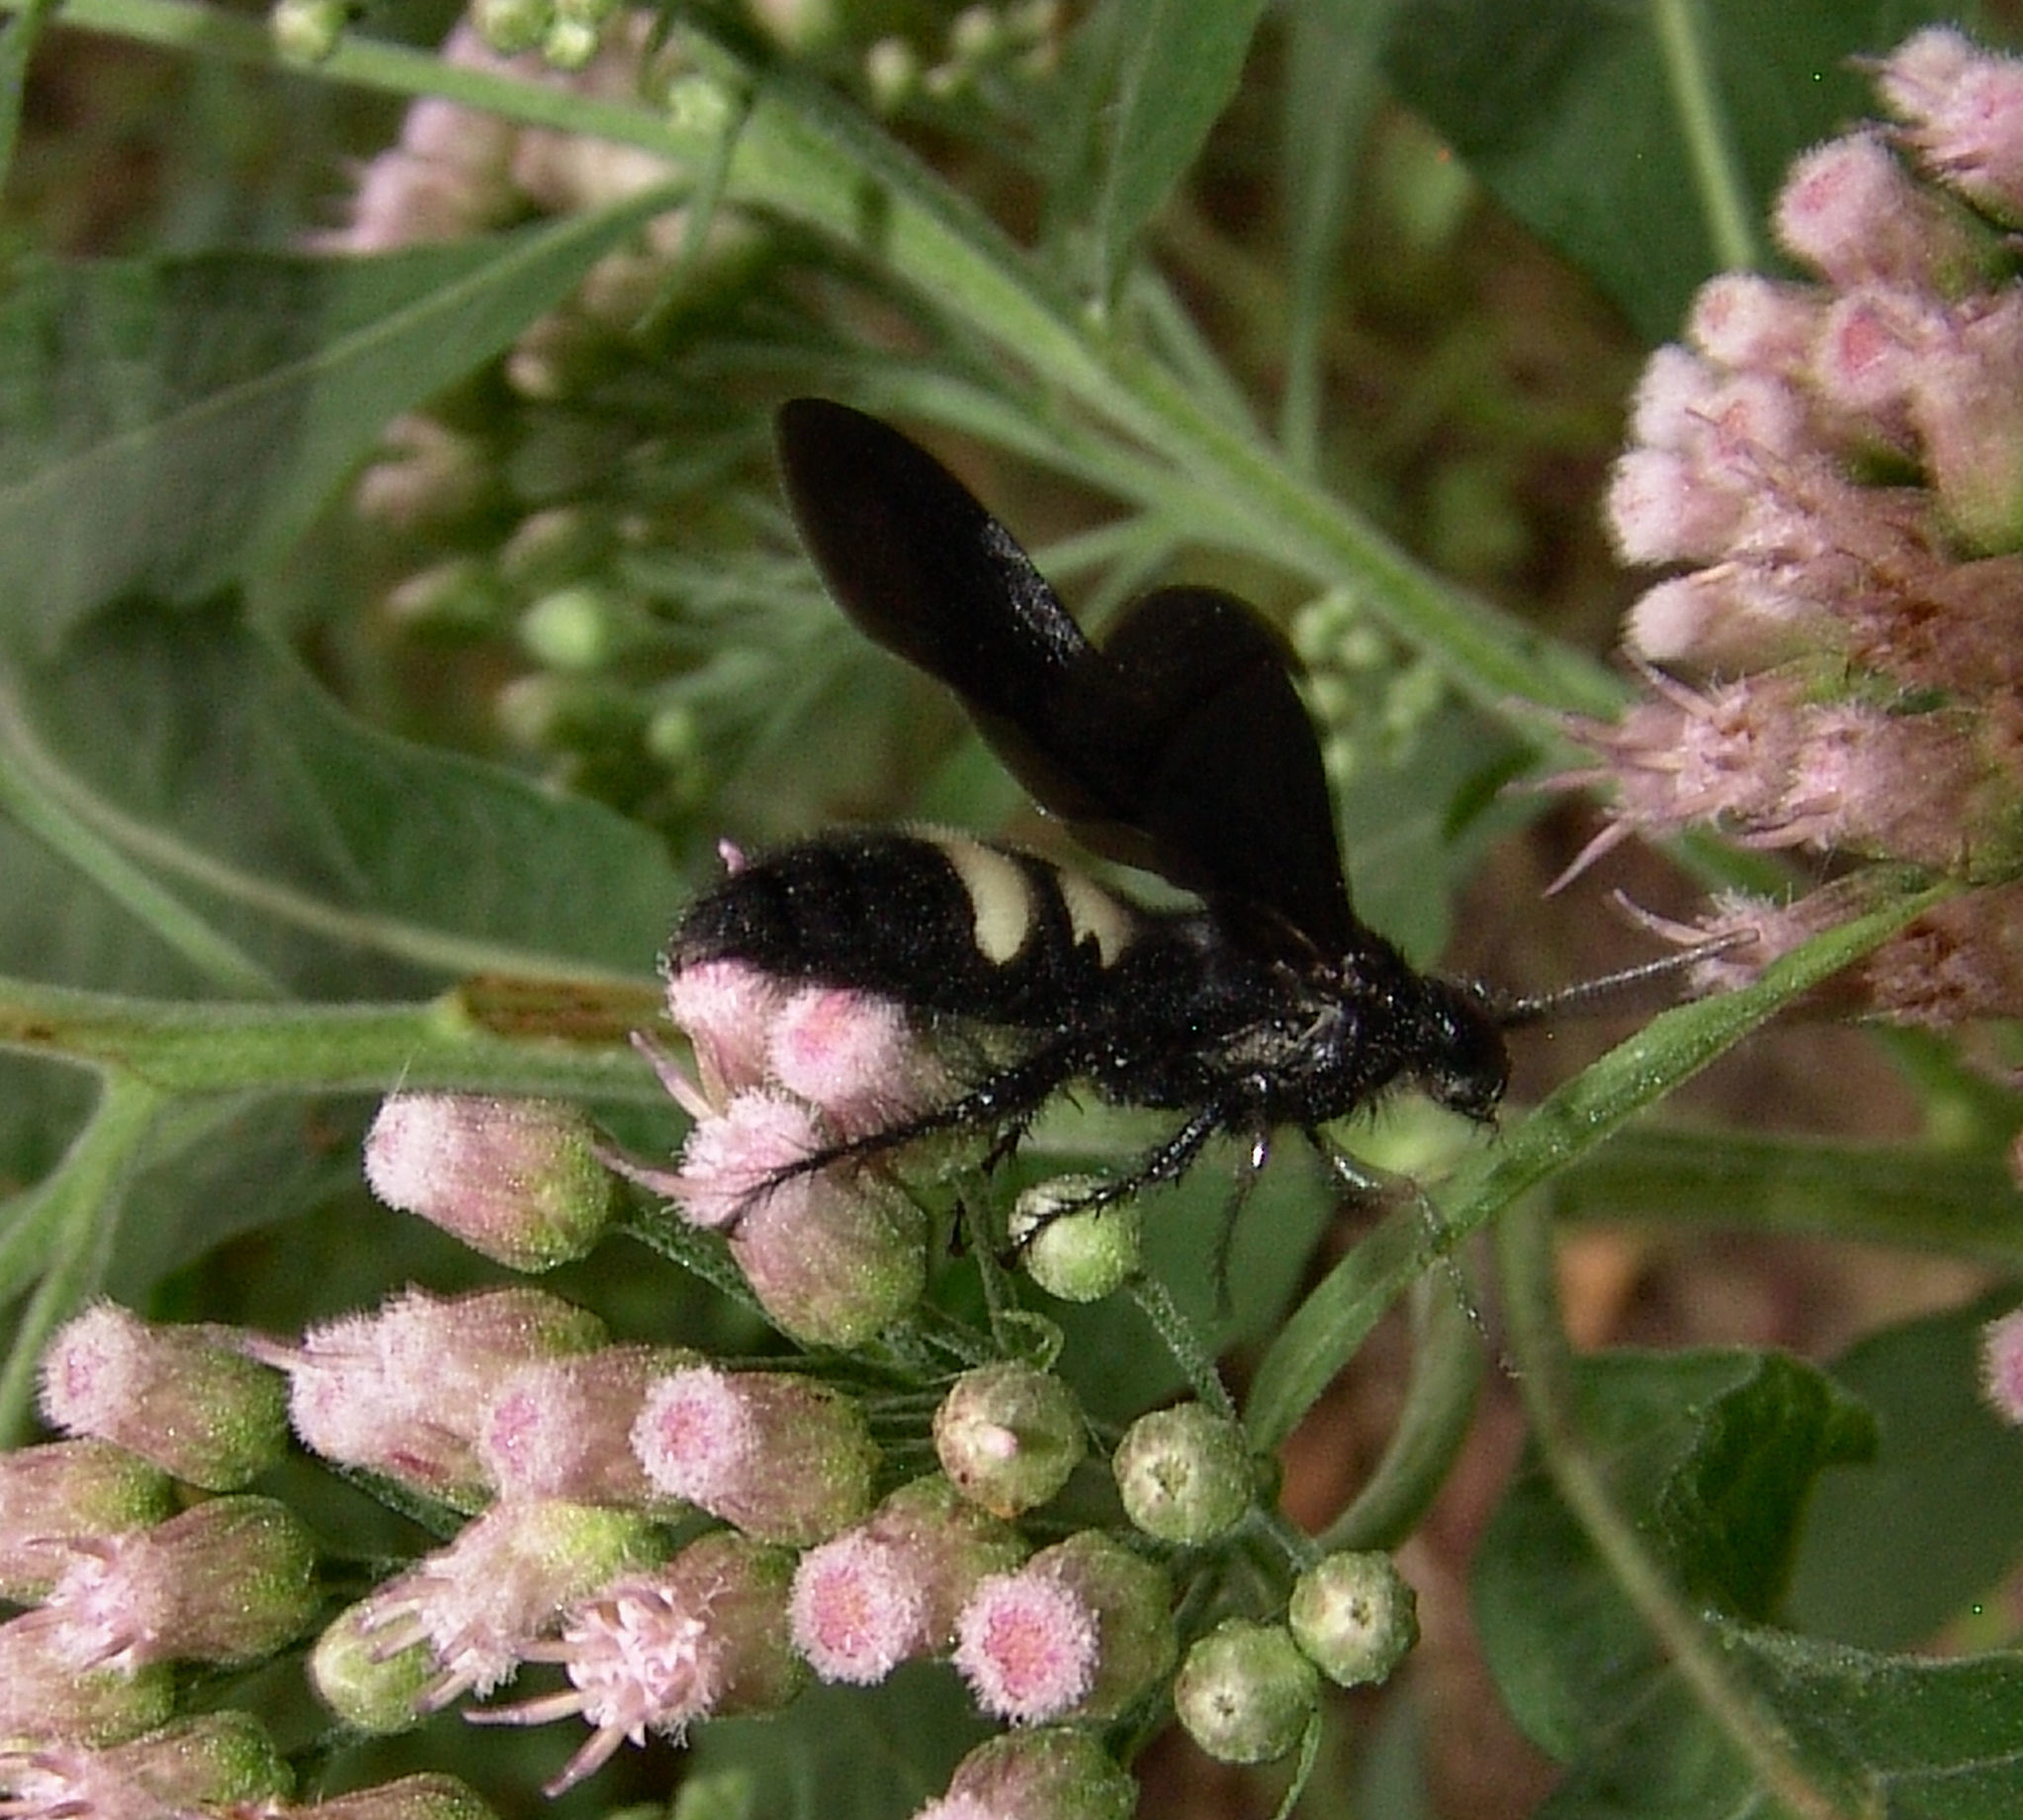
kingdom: Animalia
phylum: Arthropoda
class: Insecta
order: Hymenoptera
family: Scoliidae
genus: Scolia
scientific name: Scolia bicincta
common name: Double-banded scoliid wasp
